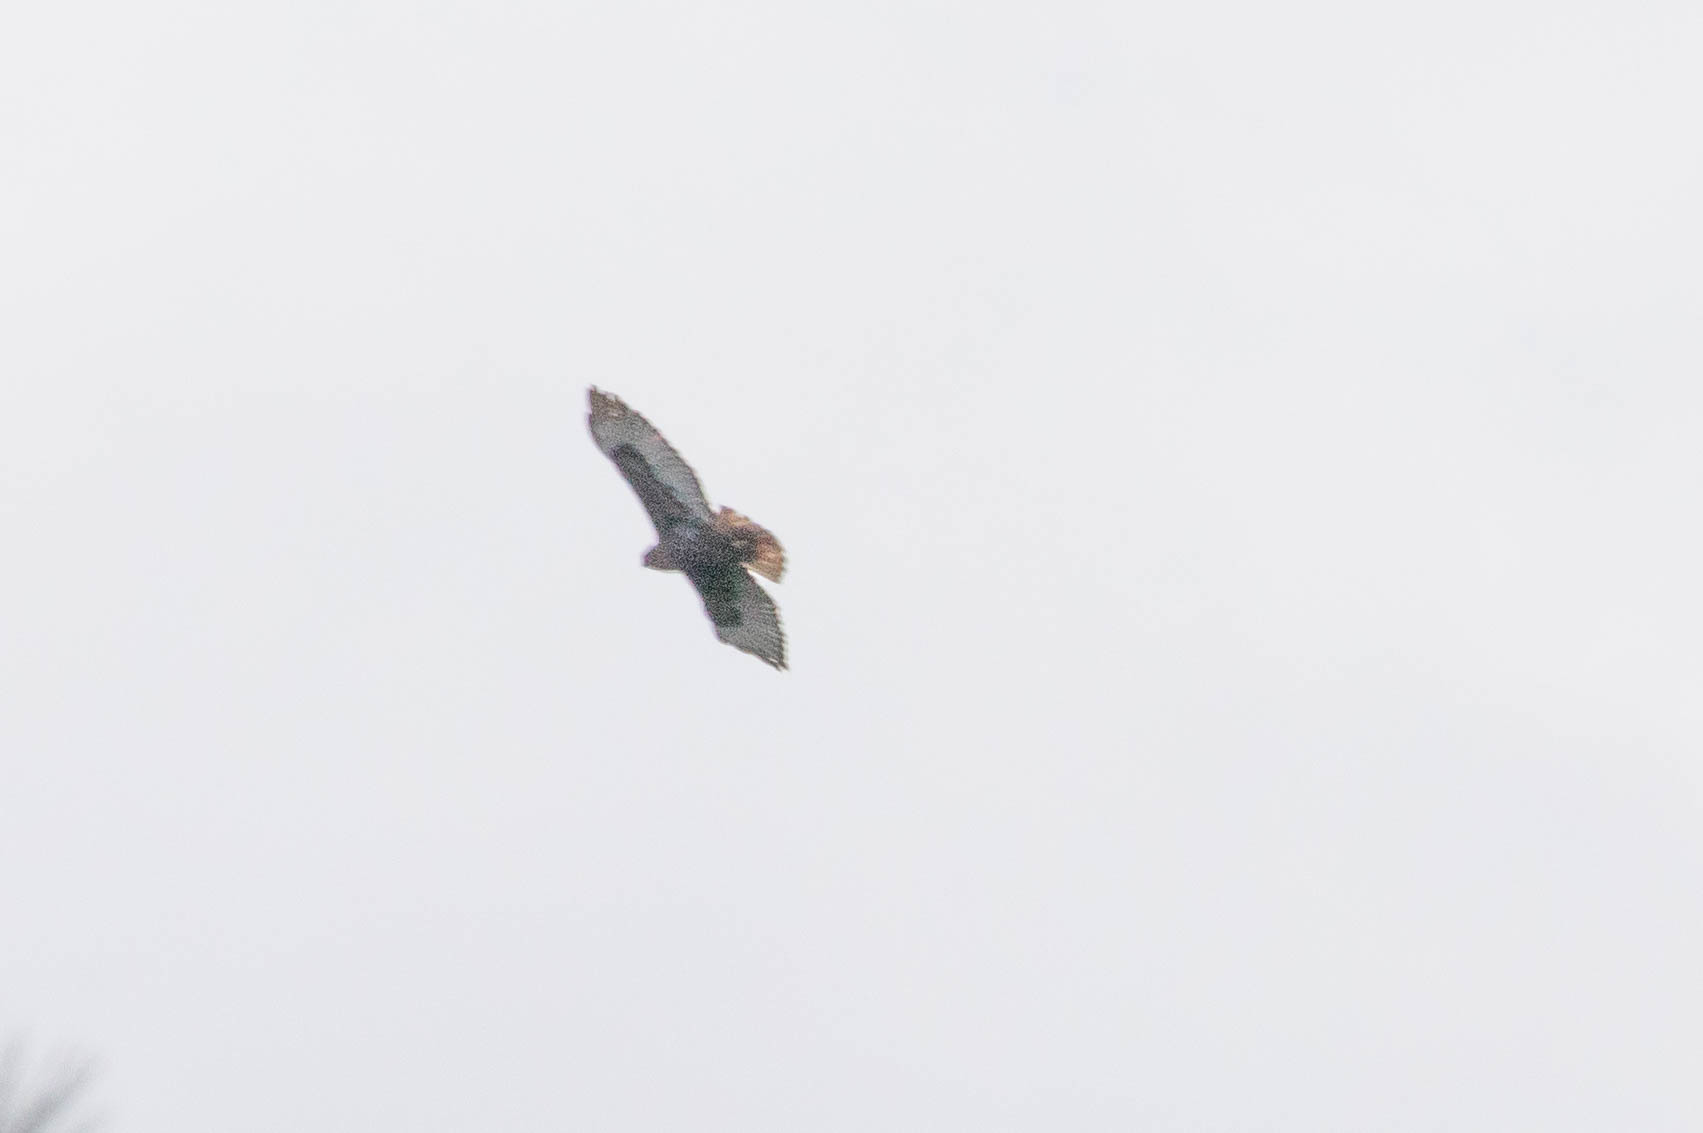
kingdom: Animalia
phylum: Chordata
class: Aves
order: Accipitriformes
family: Accipitridae
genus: Buteo
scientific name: Buteo jamaicensis
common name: Red-tailed hawk
